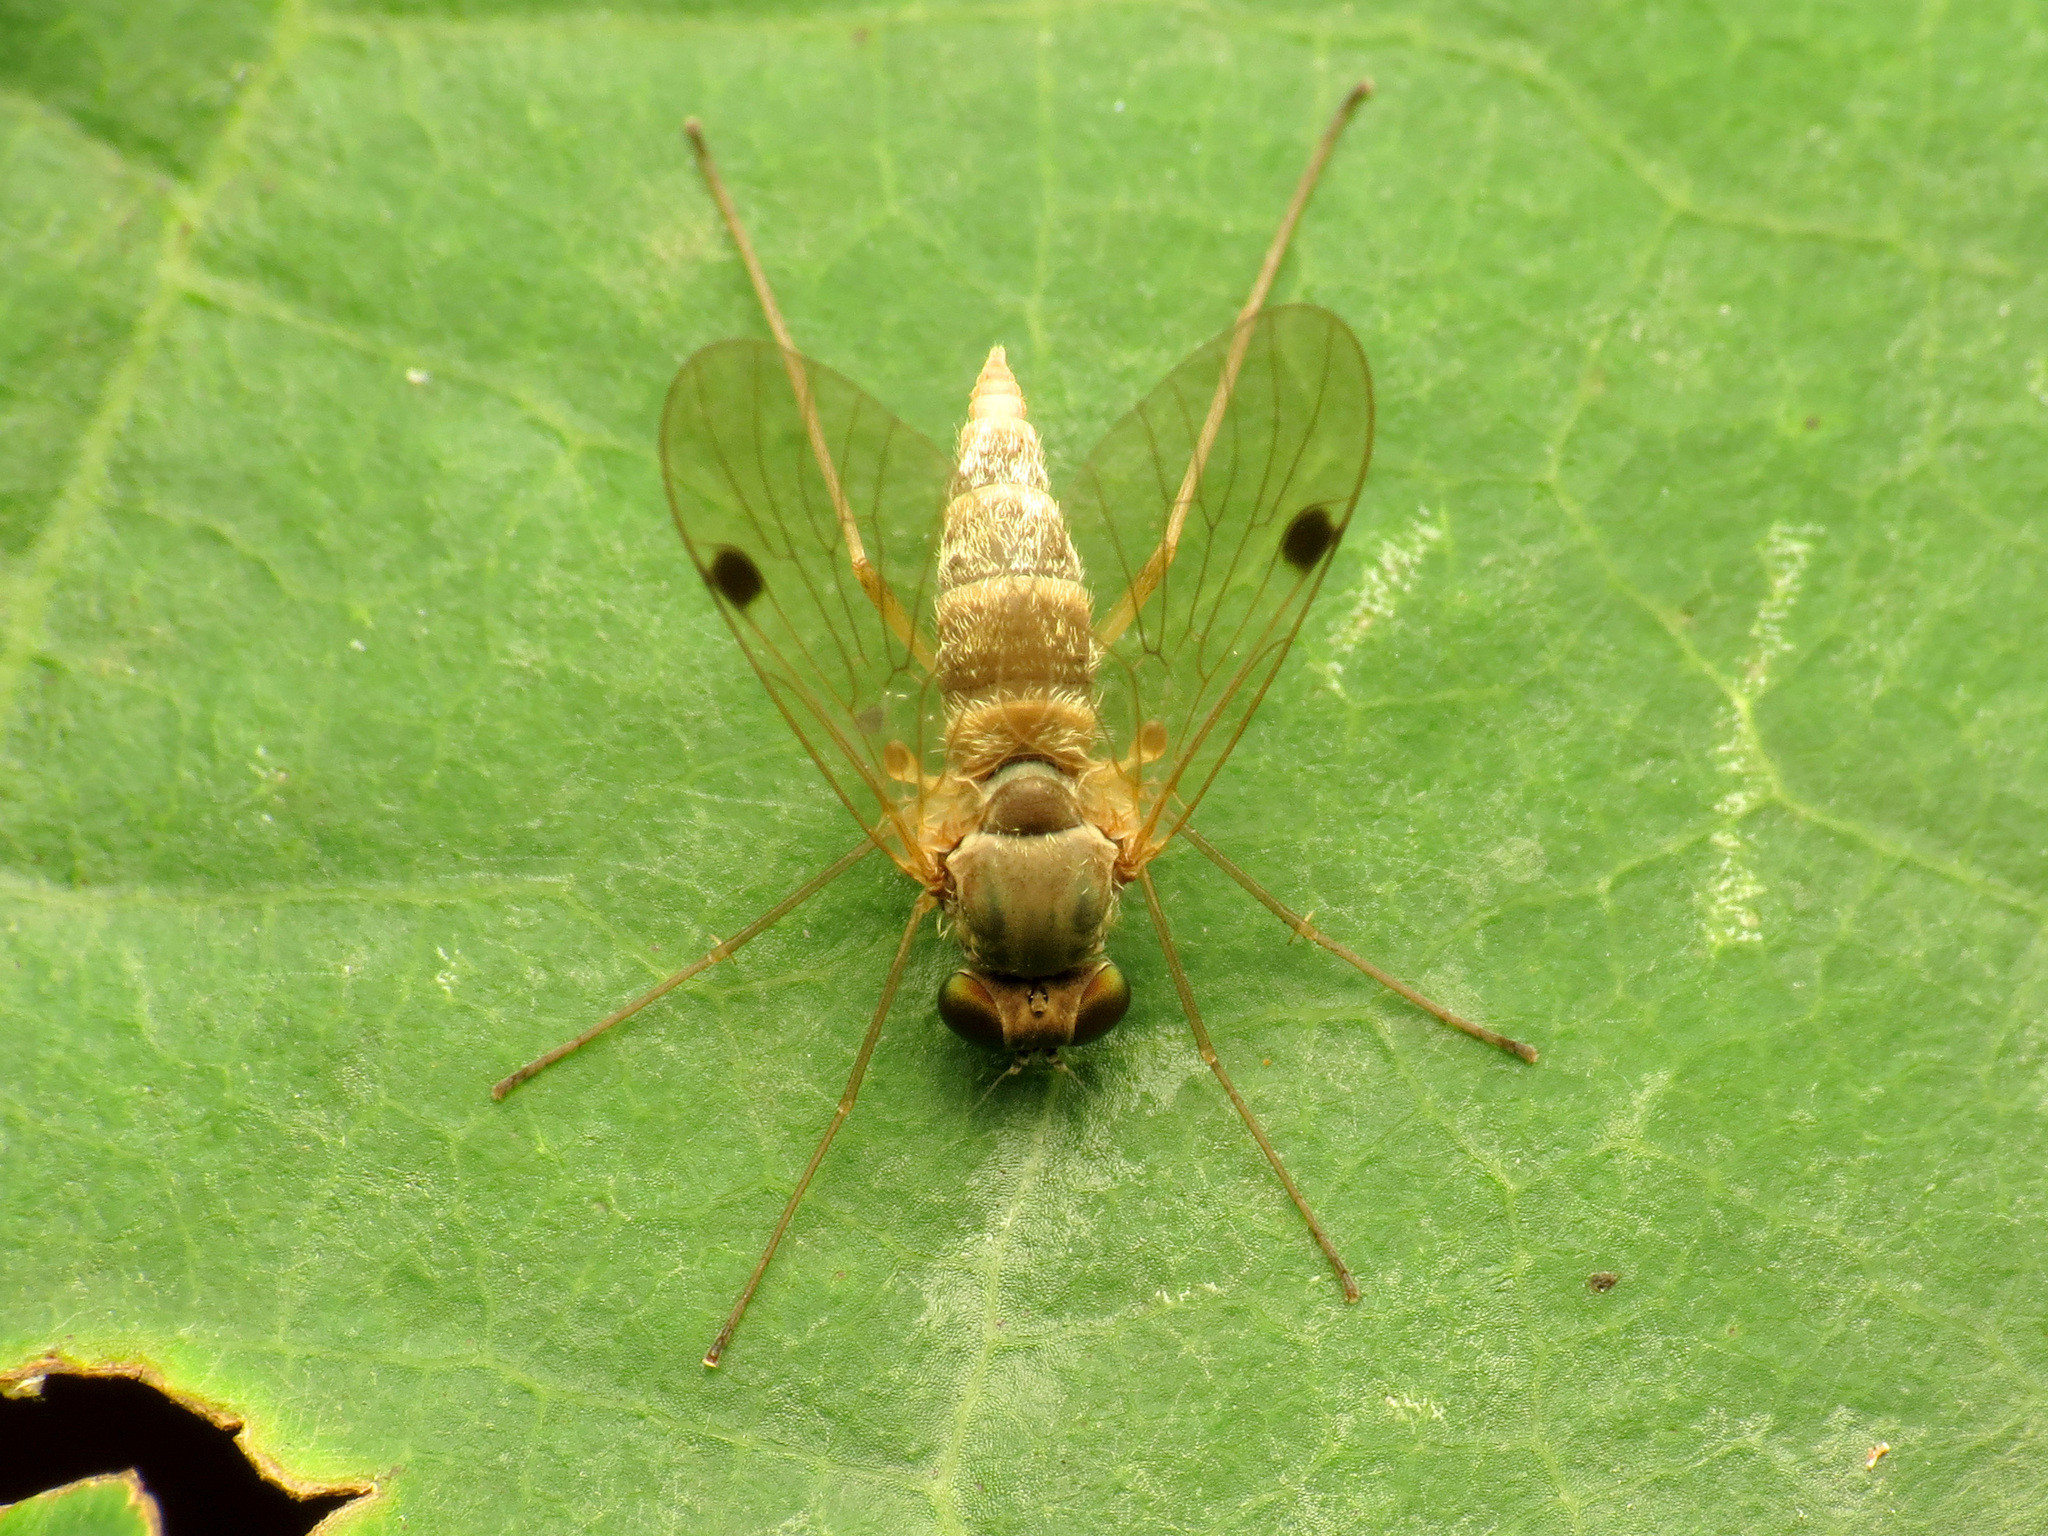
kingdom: Animalia
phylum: Arthropoda
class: Insecta
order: Diptera
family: Rhagionidae
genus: Chrysopilus
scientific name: Chrysopilus modestus
